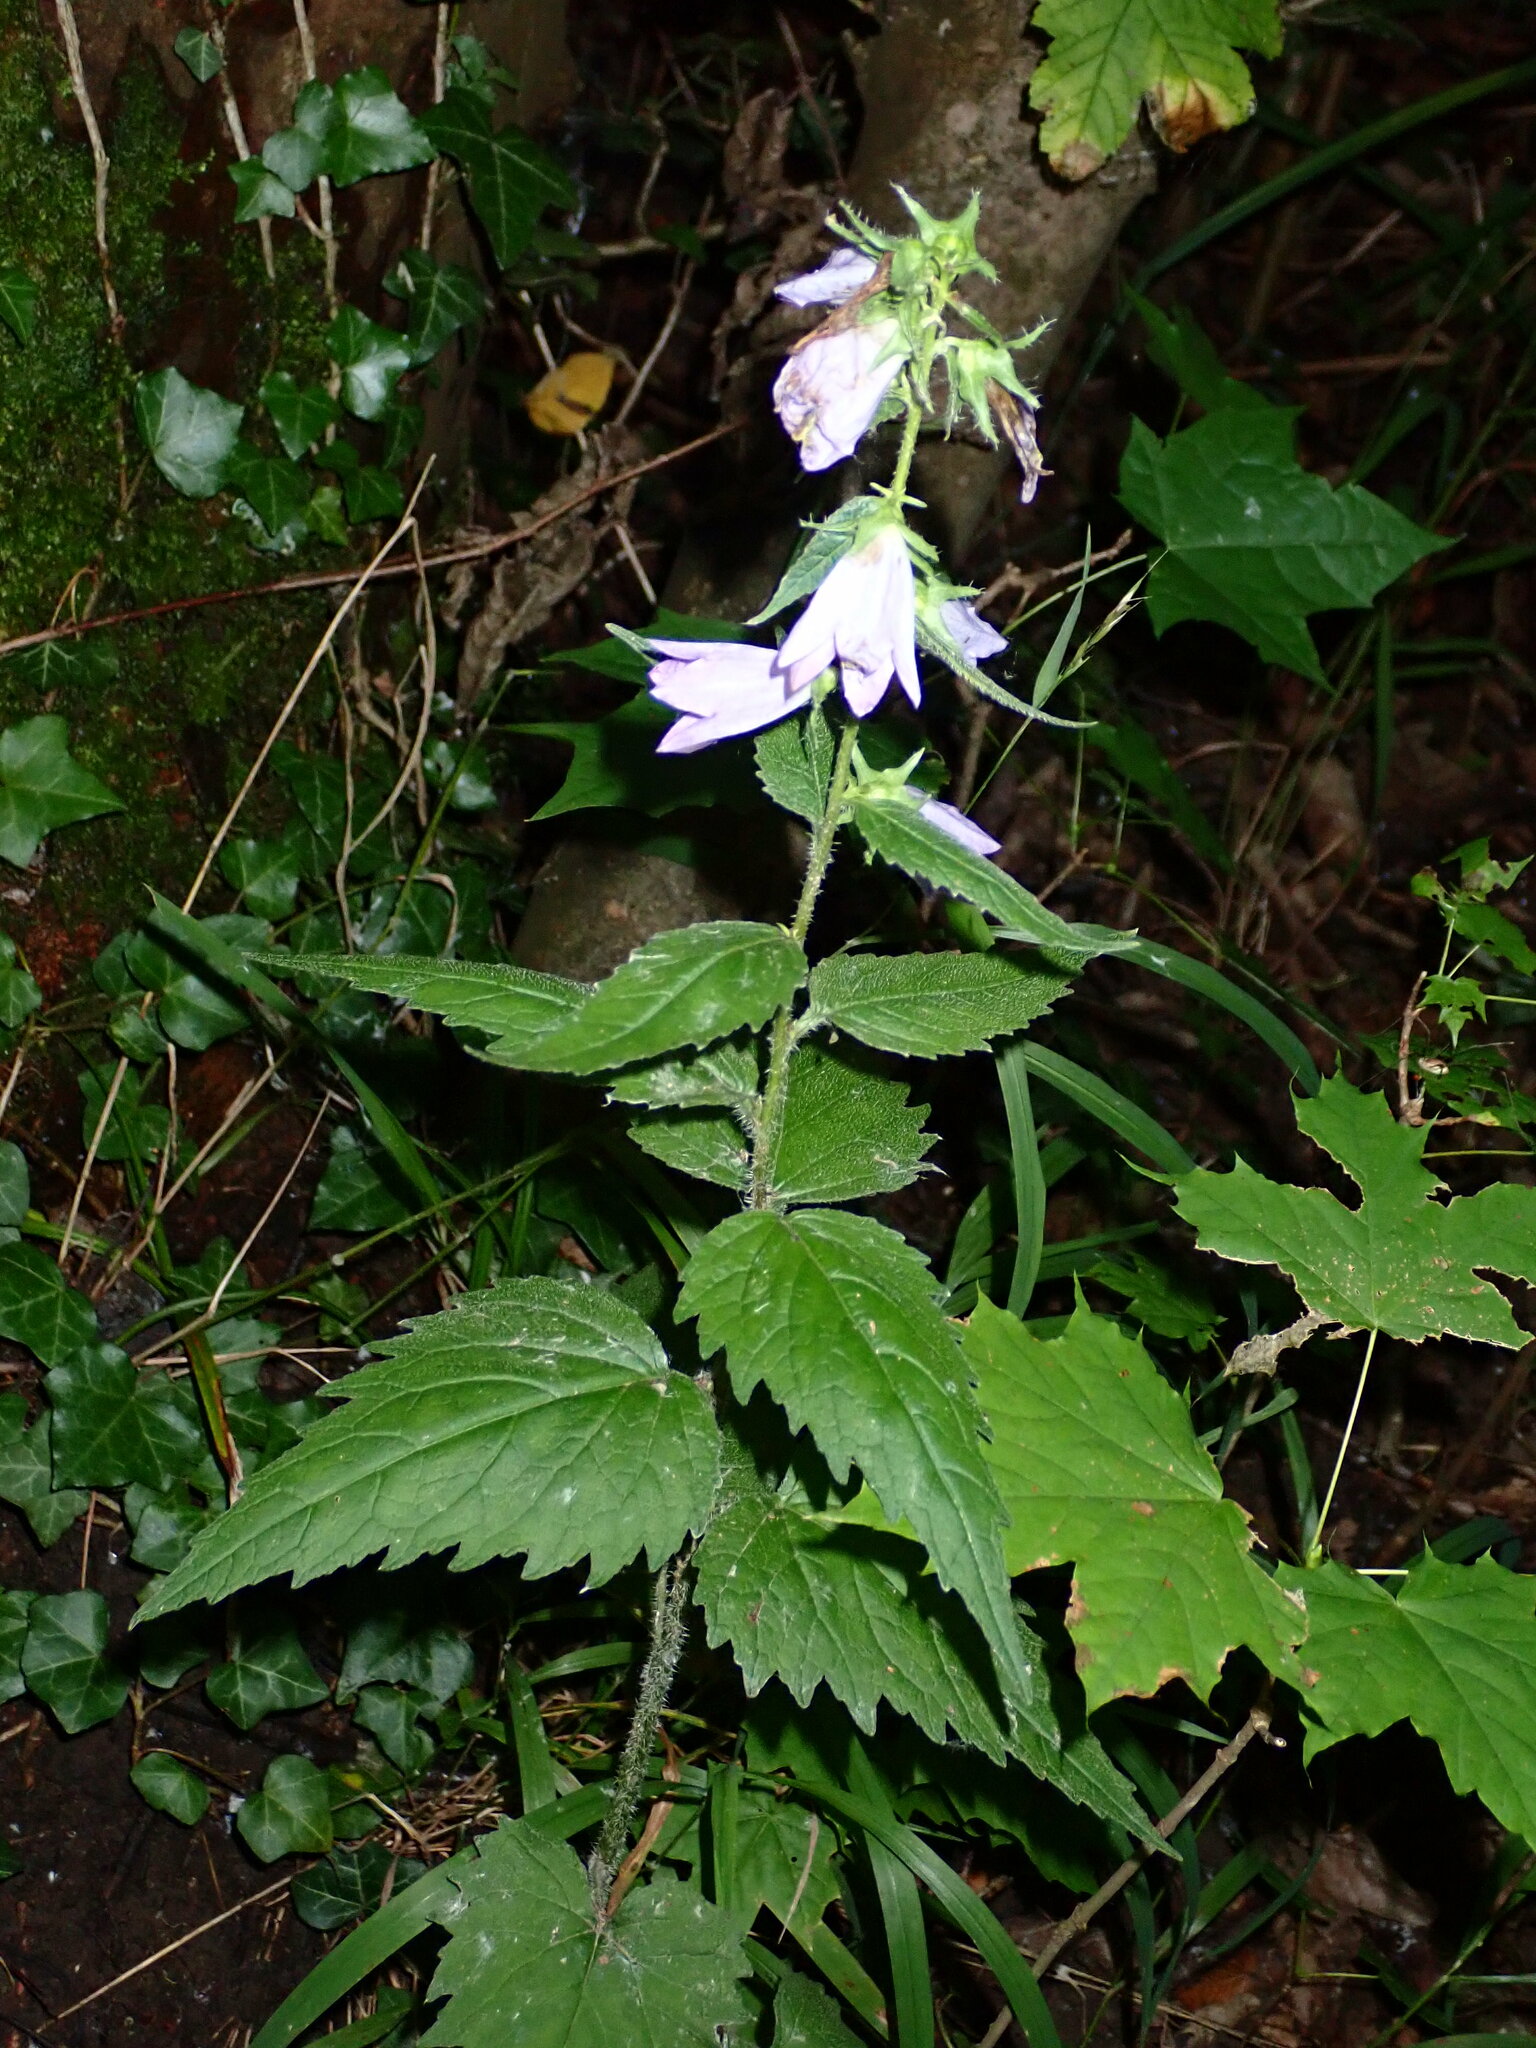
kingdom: Plantae
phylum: Tracheophyta
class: Magnoliopsida
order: Asterales
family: Campanulaceae
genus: Campanula
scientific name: Campanula trachelium
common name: Nettle-leaved bellflower
